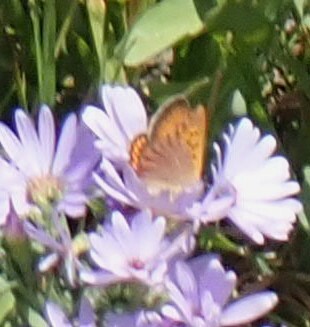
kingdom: Animalia
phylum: Arthropoda
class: Insecta
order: Lepidoptera
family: Lycaenidae
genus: Tharsalea
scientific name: Tharsalea helloides
